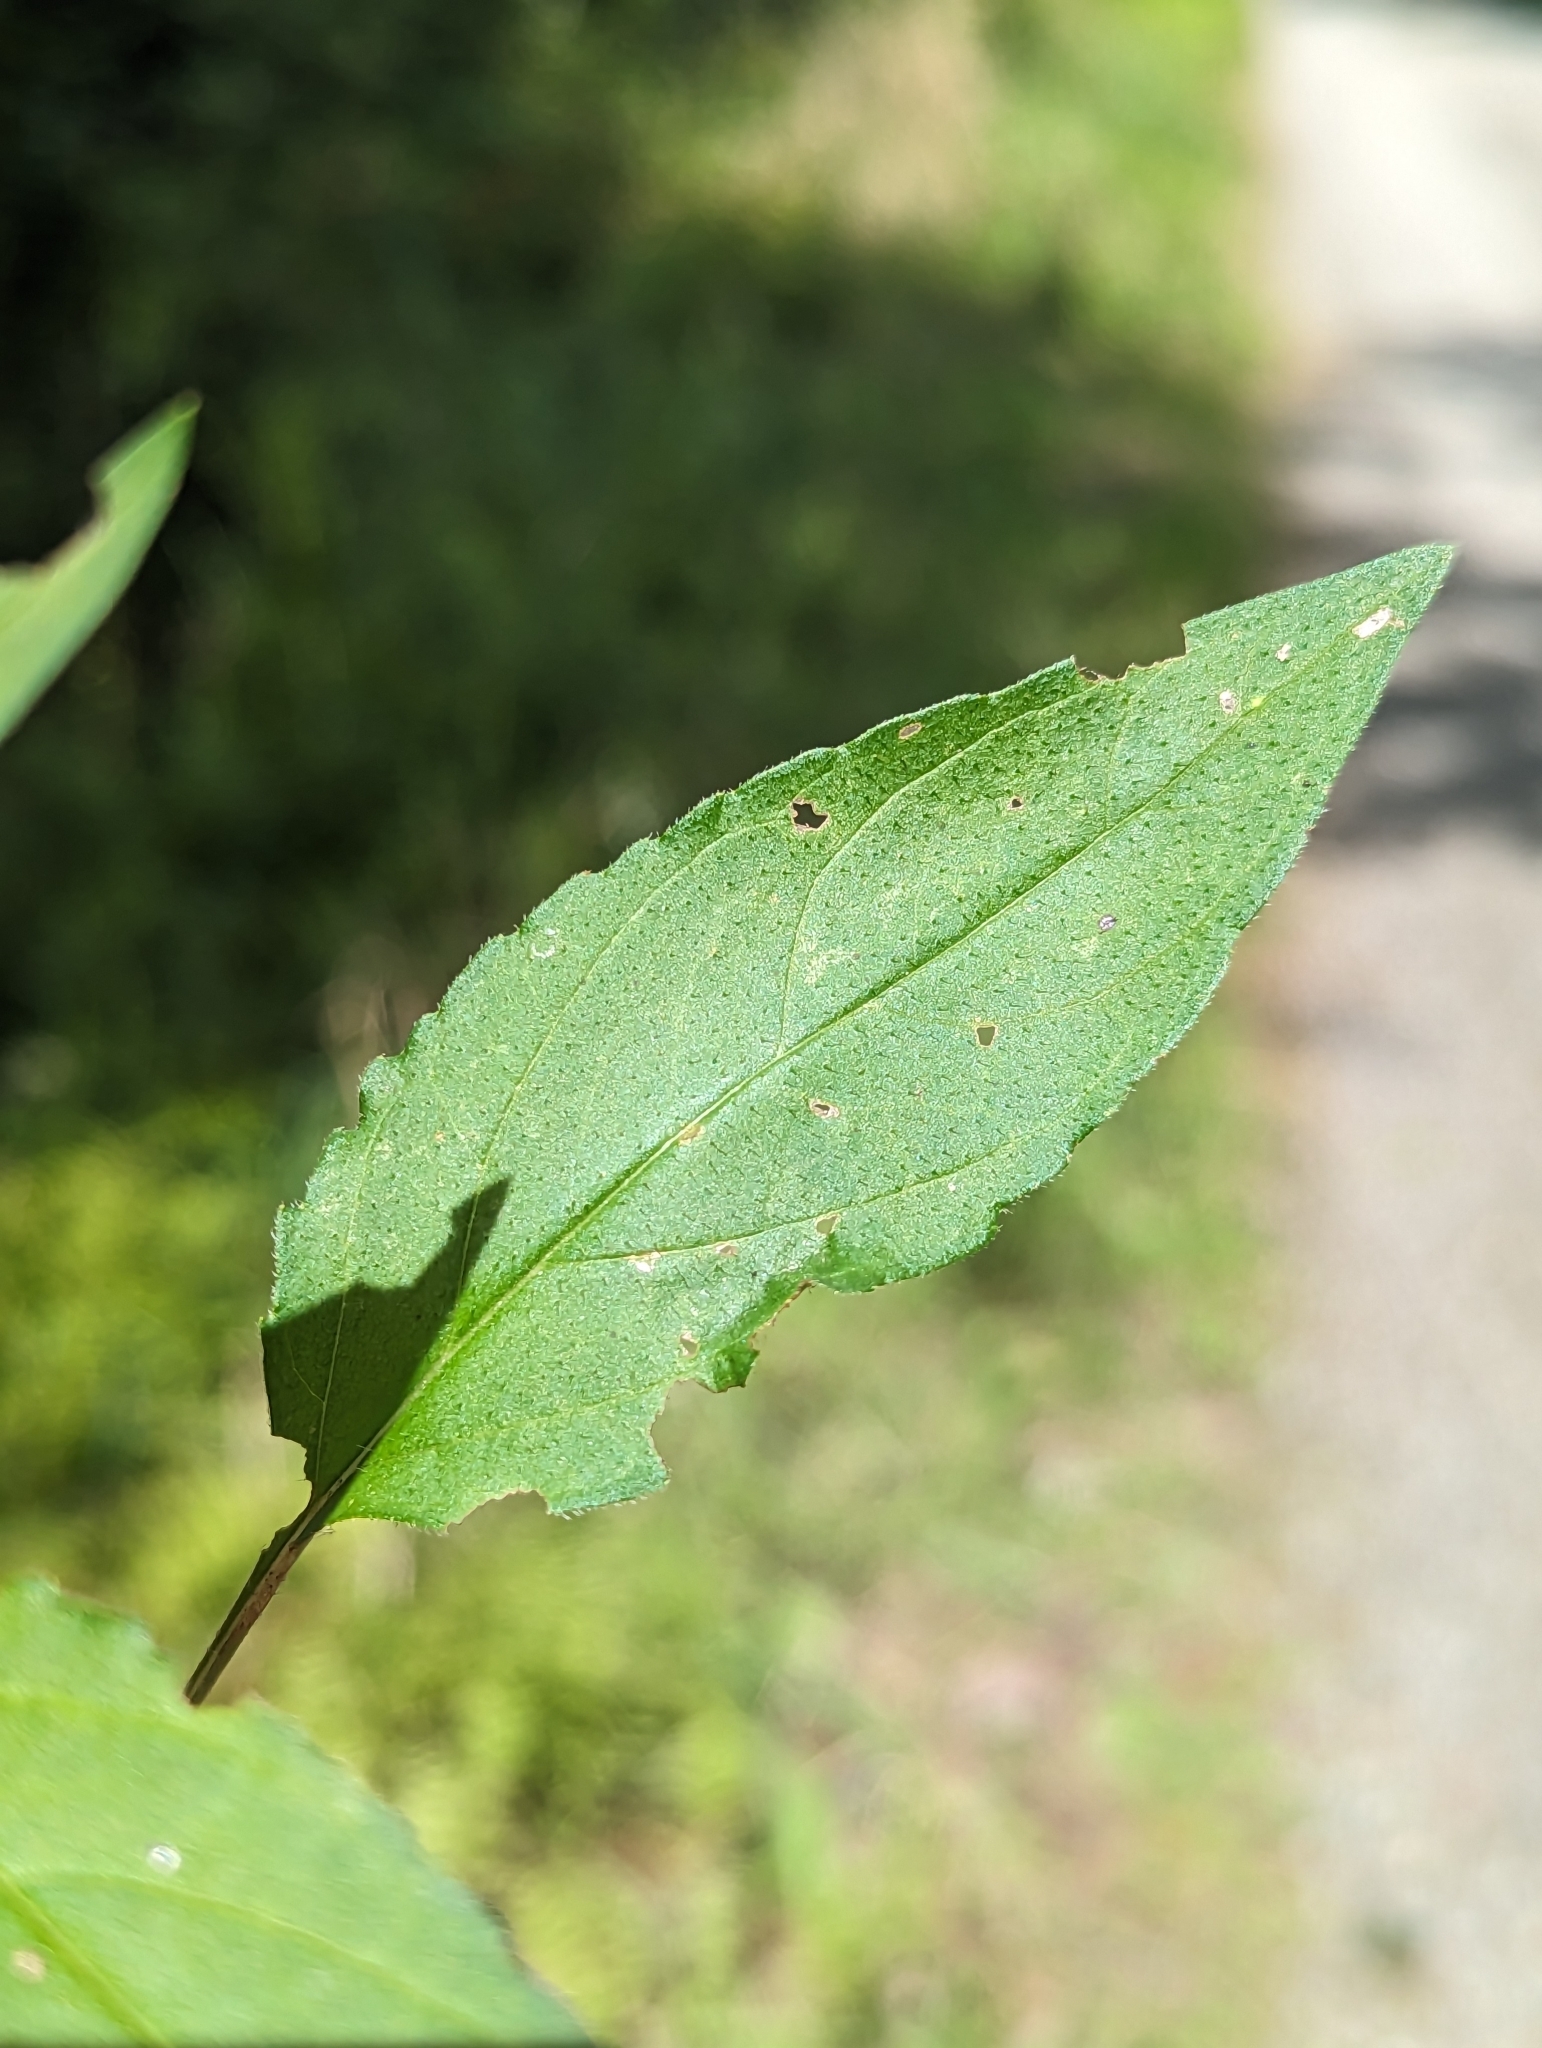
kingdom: Plantae
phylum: Tracheophyta
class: Magnoliopsida
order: Lamiales
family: Lamiaceae
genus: Prunella
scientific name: Prunella vulgaris
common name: Heal-all
